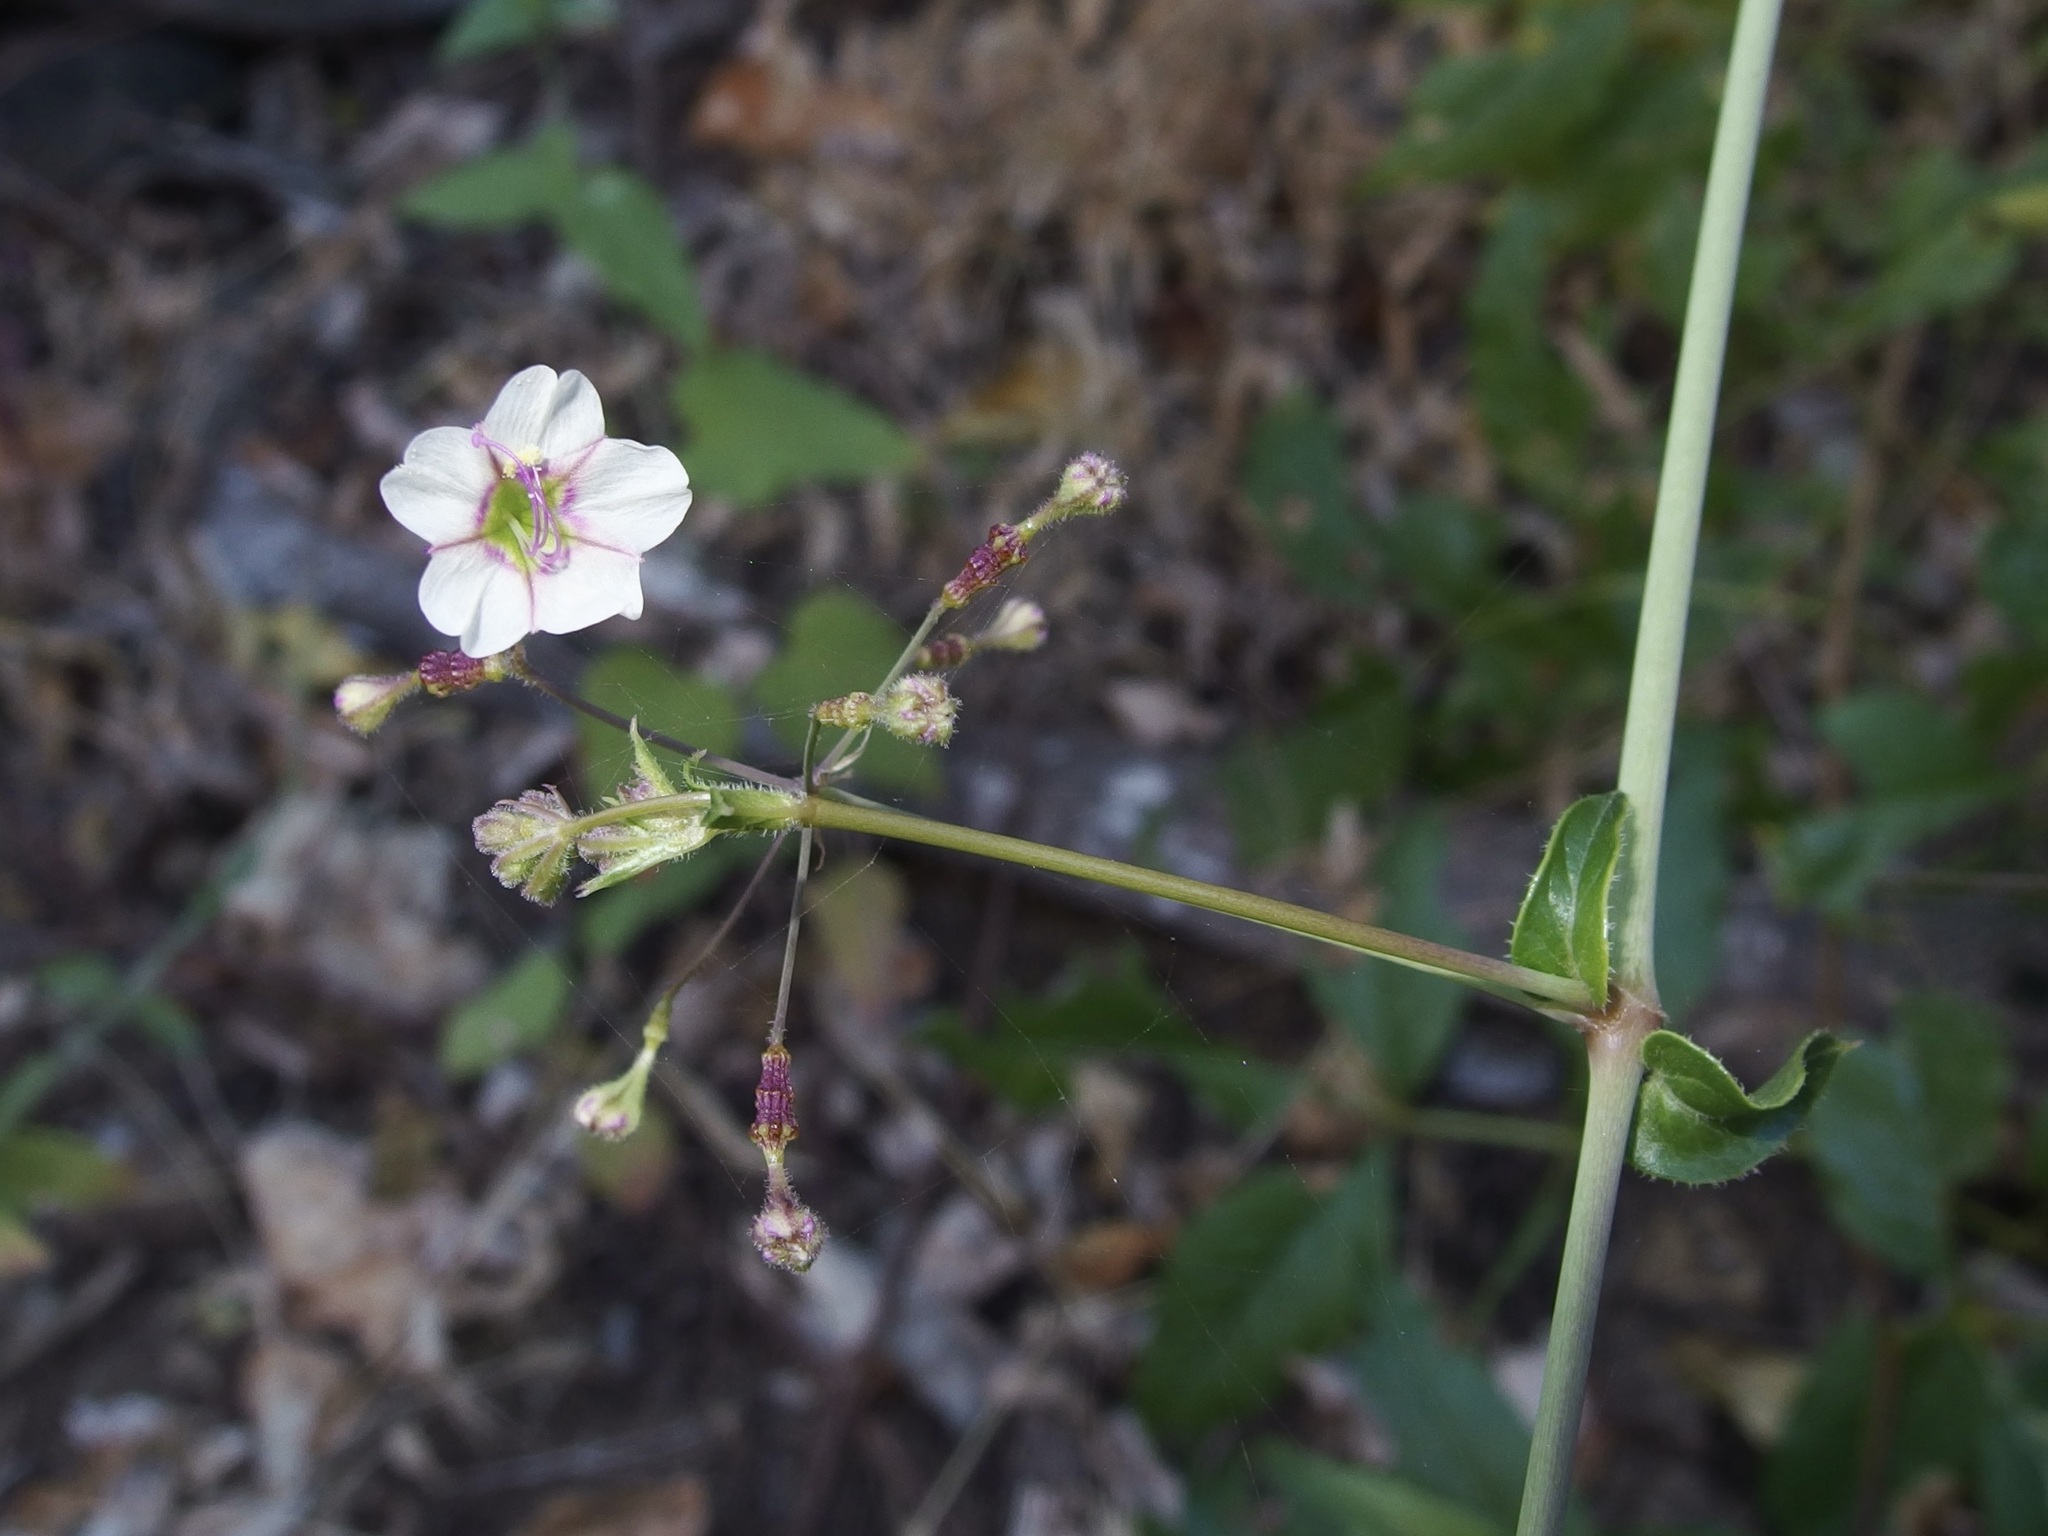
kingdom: Plantae
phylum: Tracheophyta
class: Magnoliopsida
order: Caryophyllales
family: Nyctaginaceae
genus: Commicarpus
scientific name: Commicarpus brandegeei
